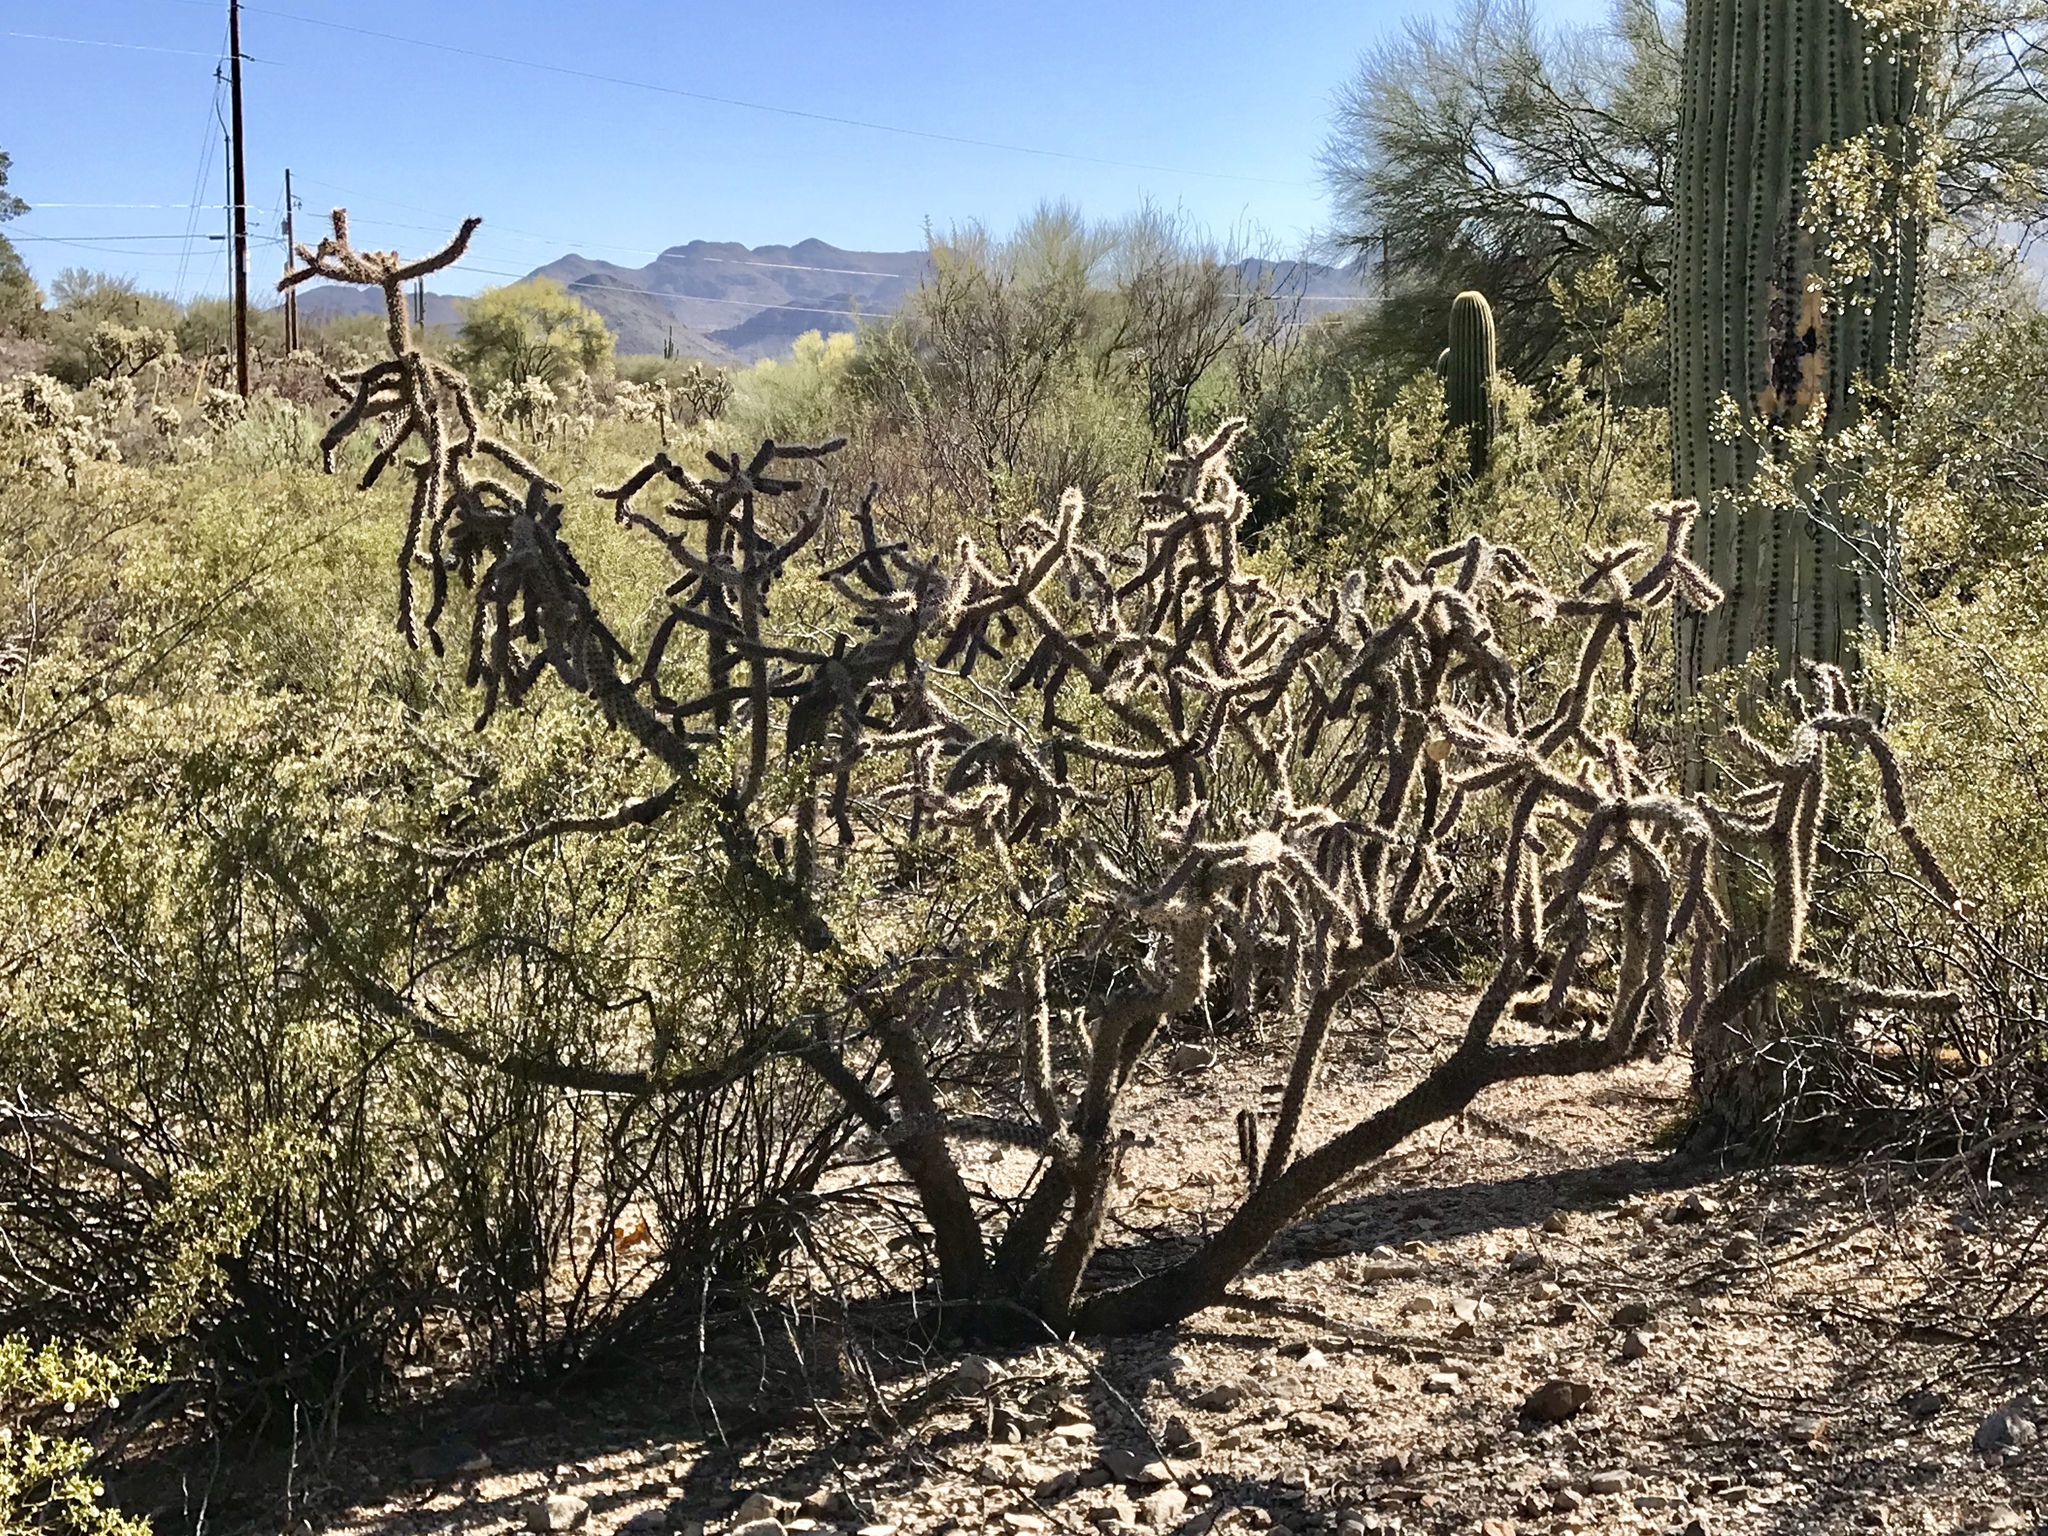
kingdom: Plantae
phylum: Tracheophyta
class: Magnoliopsida
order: Caryophyllales
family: Cactaceae
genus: Cylindropuntia
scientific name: Cylindropuntia imbricata
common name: Candelabrum cactus
